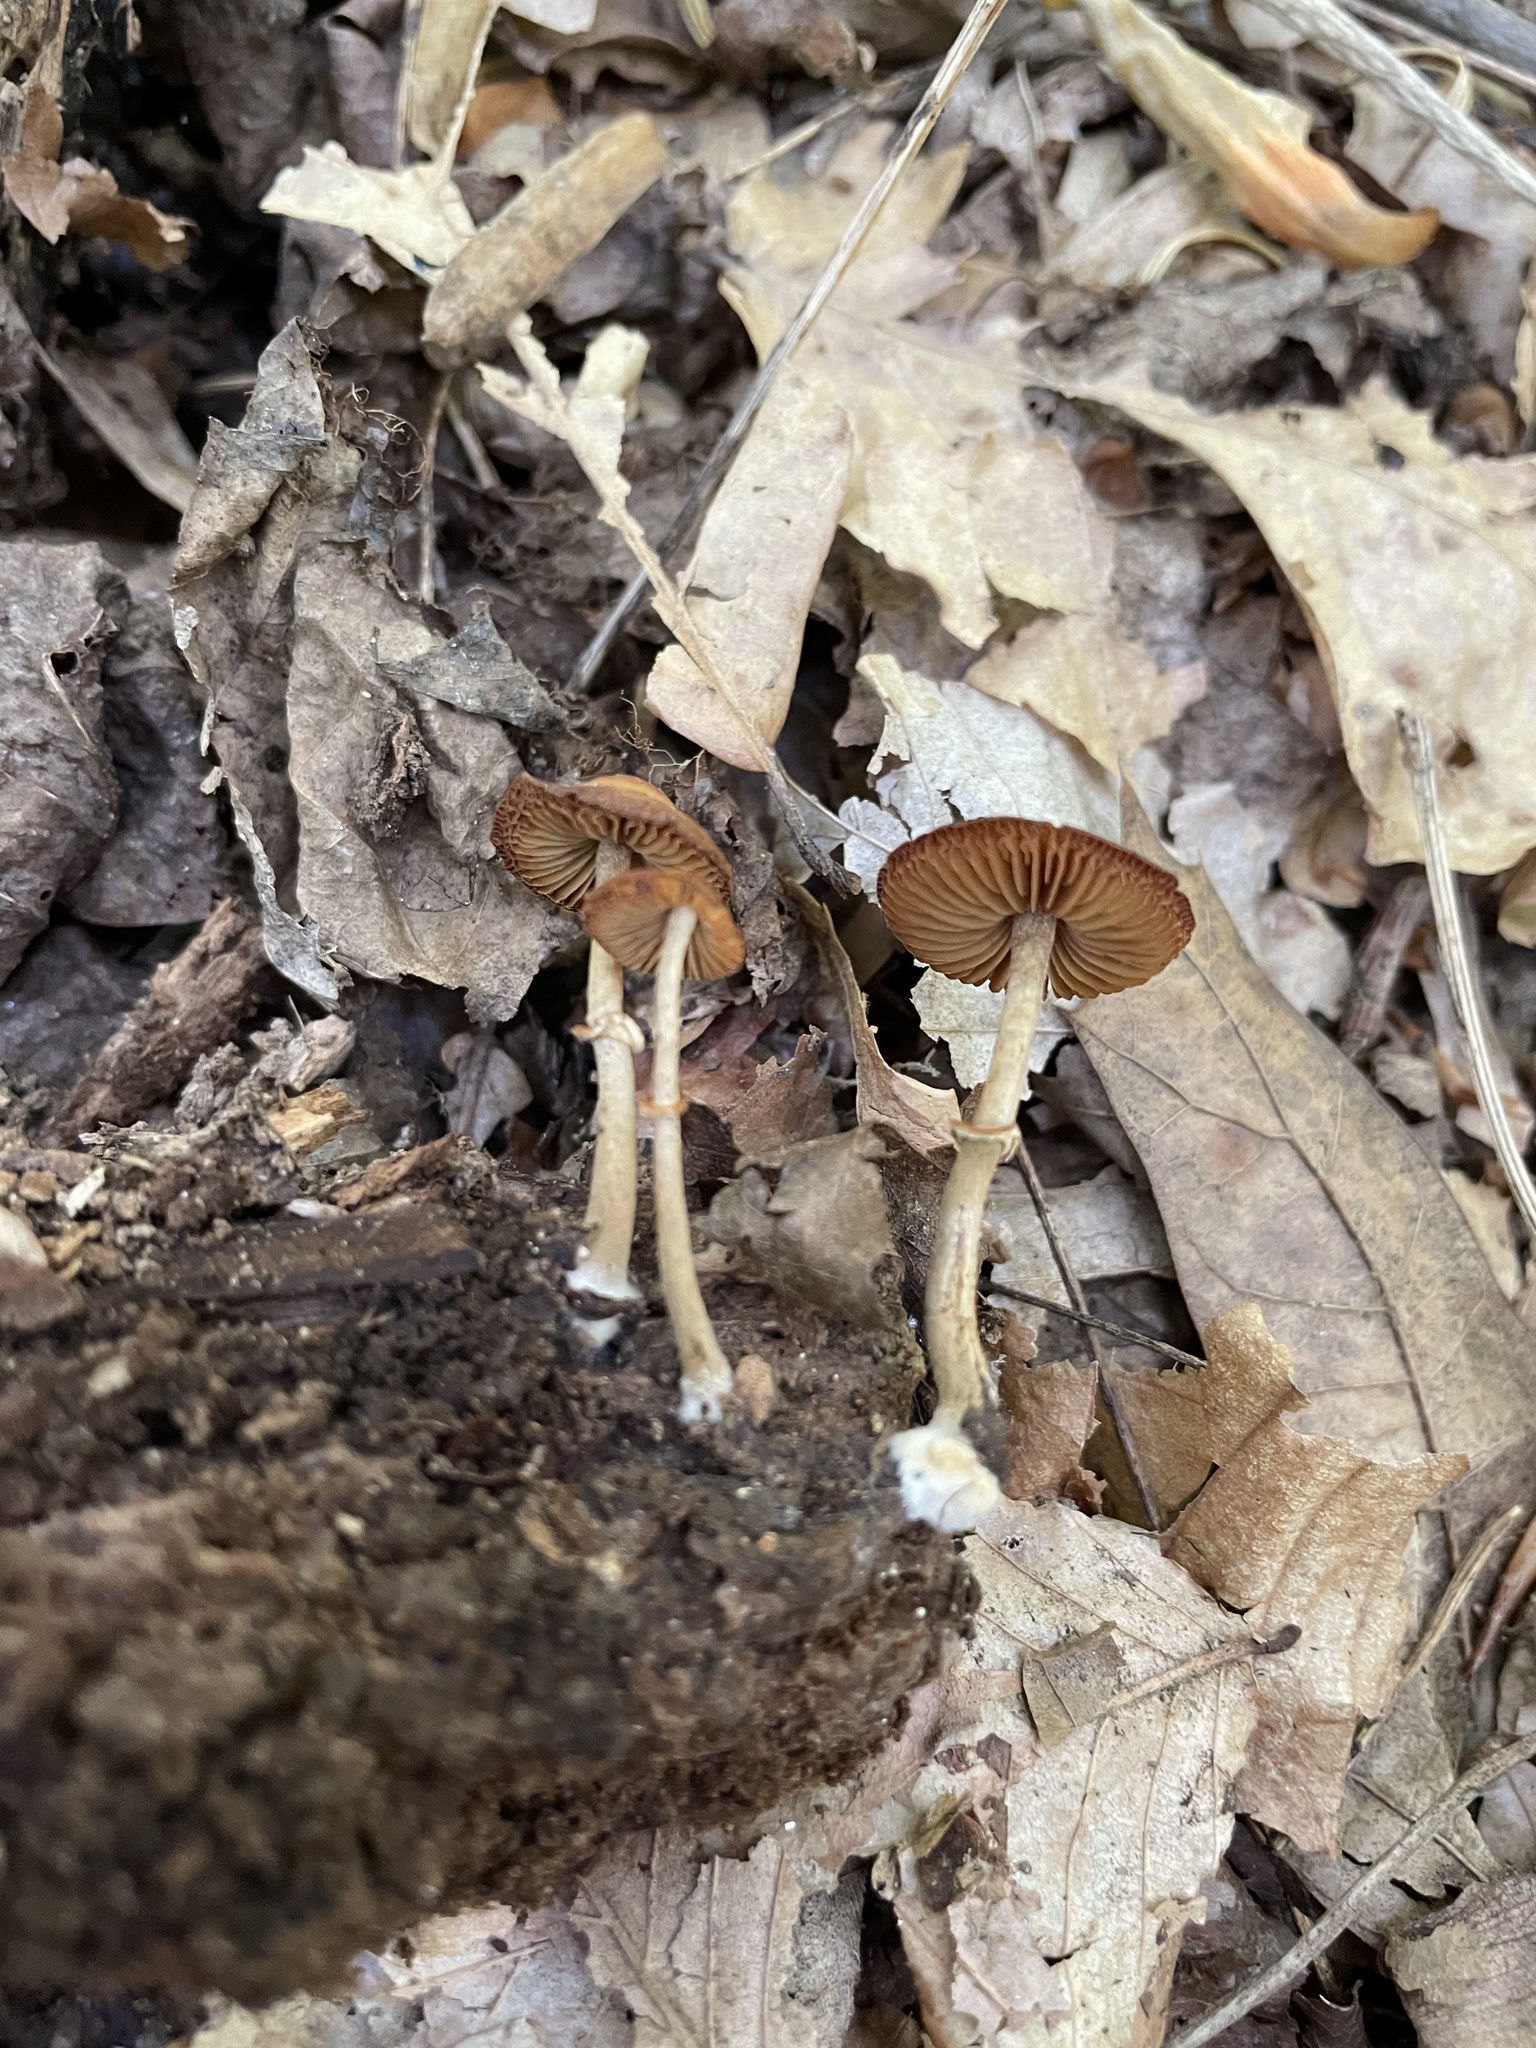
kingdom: Fungi
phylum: Basidiomycota
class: Agaricomycetes
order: Agaricales
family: Bolbitiaceae
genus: Conocybe
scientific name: Conocybe rugosa
